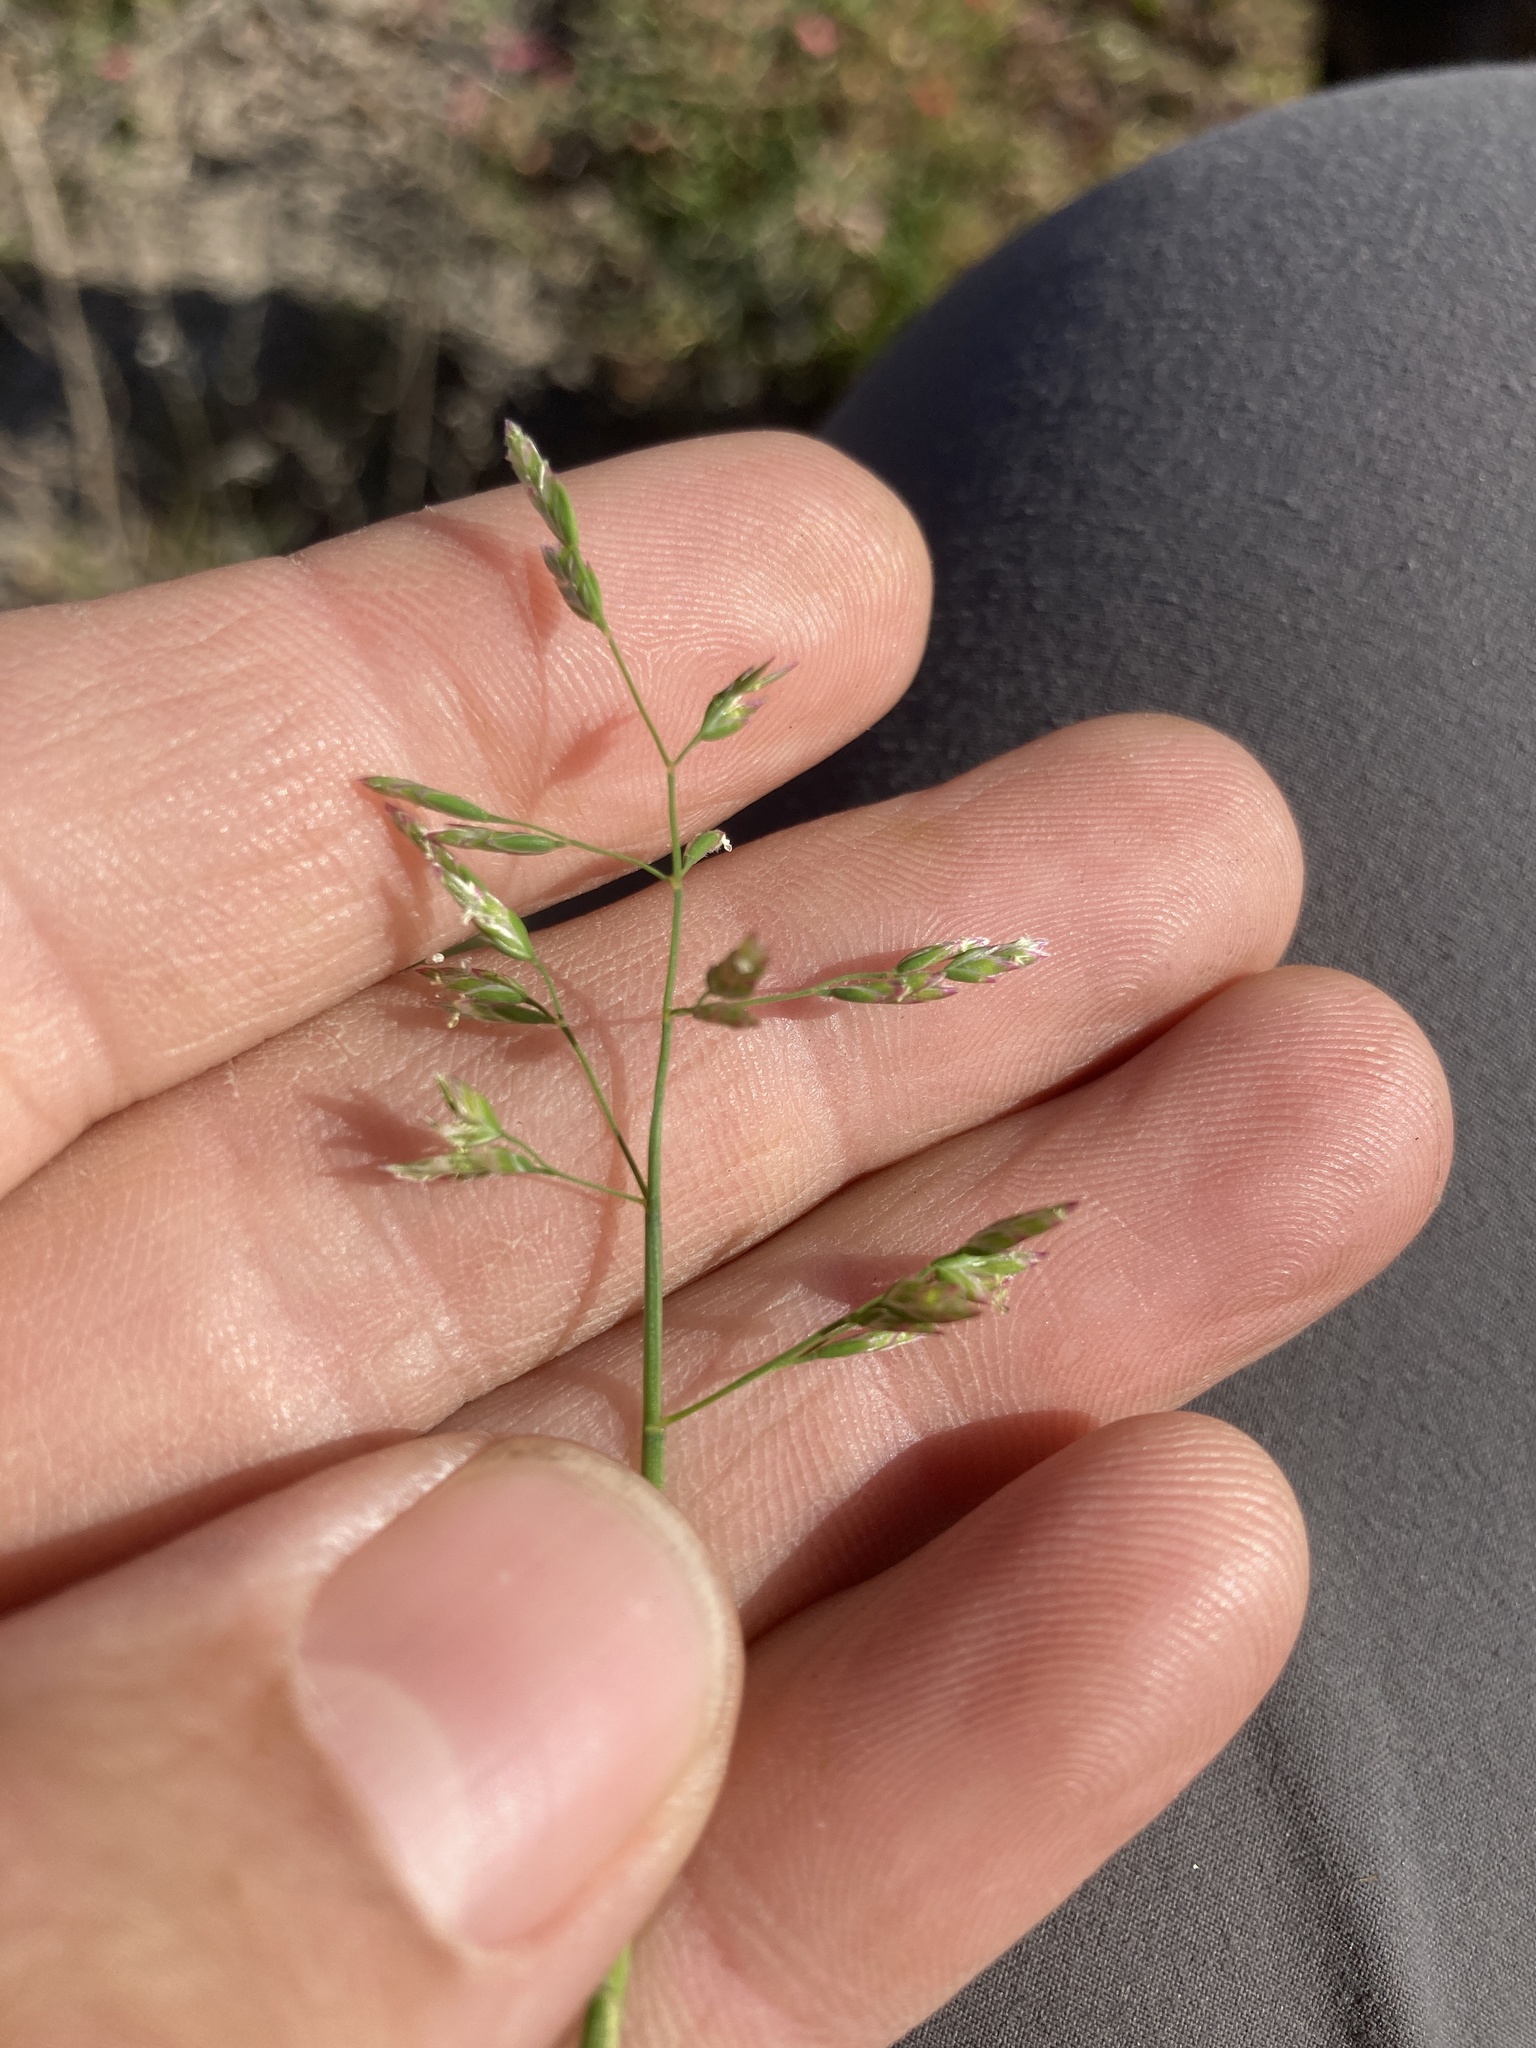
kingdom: Plantae
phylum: Tracheophyta
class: Liliopsida
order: Poales
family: Poaceae
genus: Poa
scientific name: Poa annua
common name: Annual bluegrass
